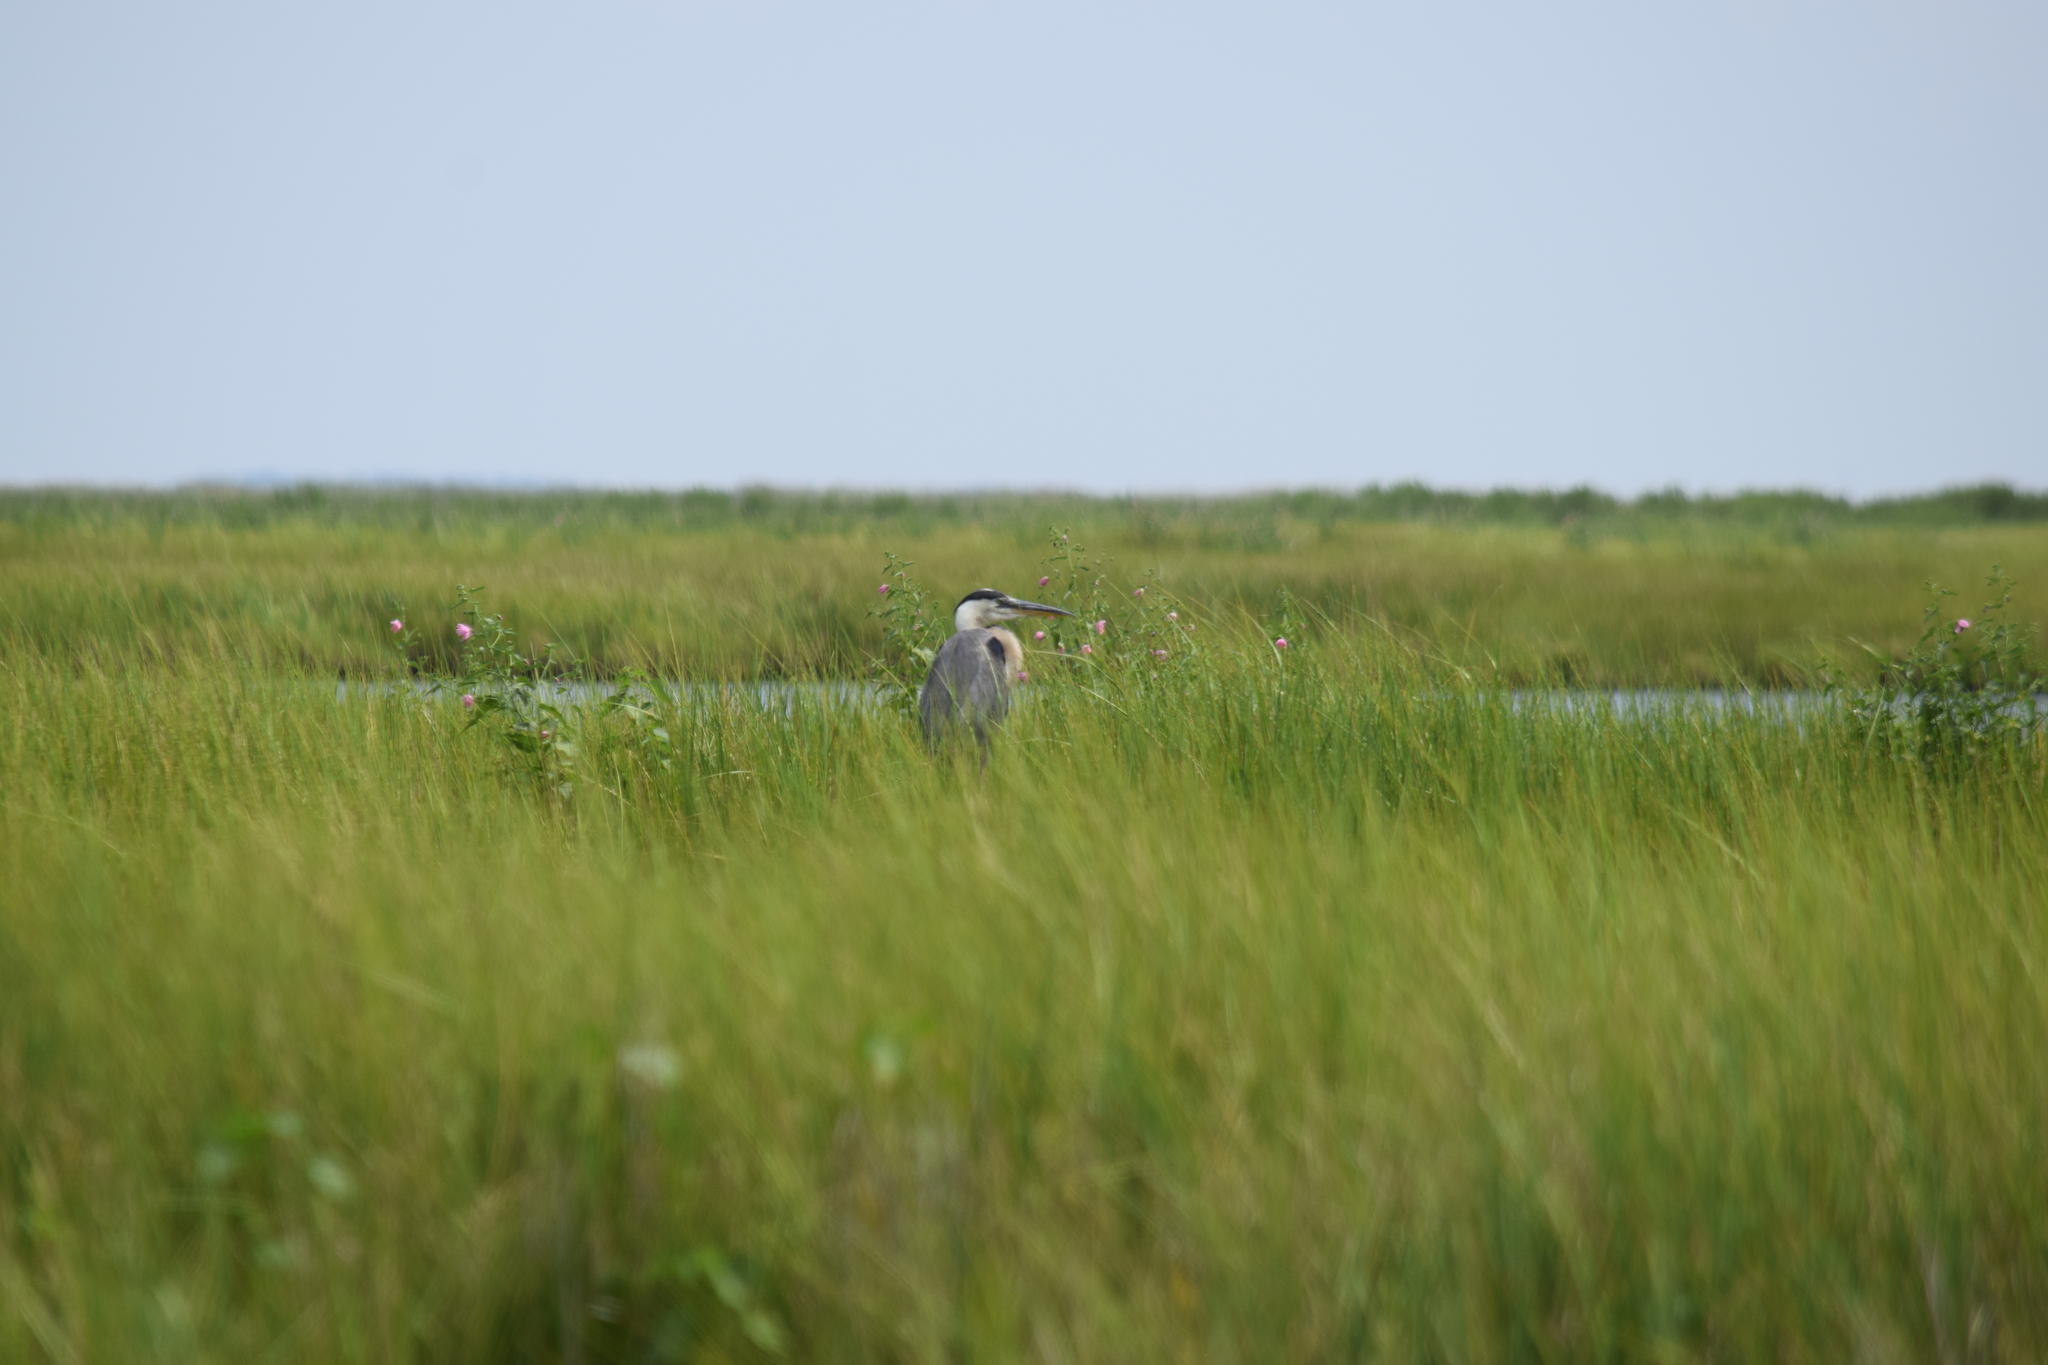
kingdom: Animalia
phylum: Chordata
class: Aves
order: Pelecaniformes
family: Ardeidae
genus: Ardea
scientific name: Ardea herodias
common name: Great blue heron
